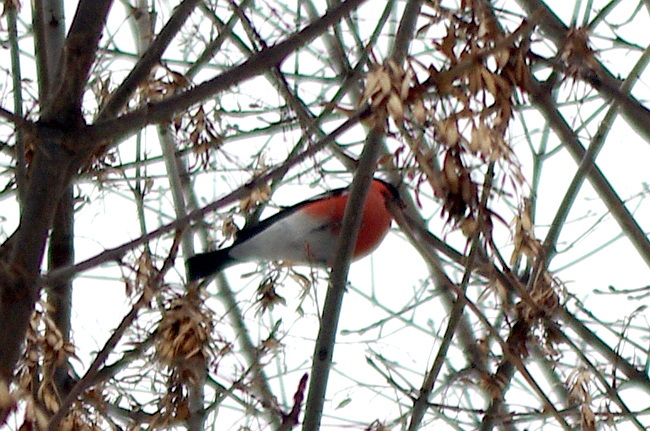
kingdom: Animalia
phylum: Chordata
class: Aves
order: Passeriformes
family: Fringillidae
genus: Pyrrhula
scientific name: Pyrrhula pyrrhula
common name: Eurasian bullfinch
